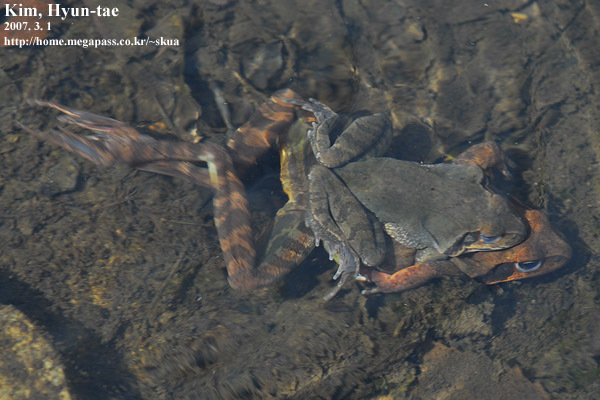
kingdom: Animalia
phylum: Chordata
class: Amphibia
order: Anura
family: Ranidae
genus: Rana
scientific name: Rana uenoi
